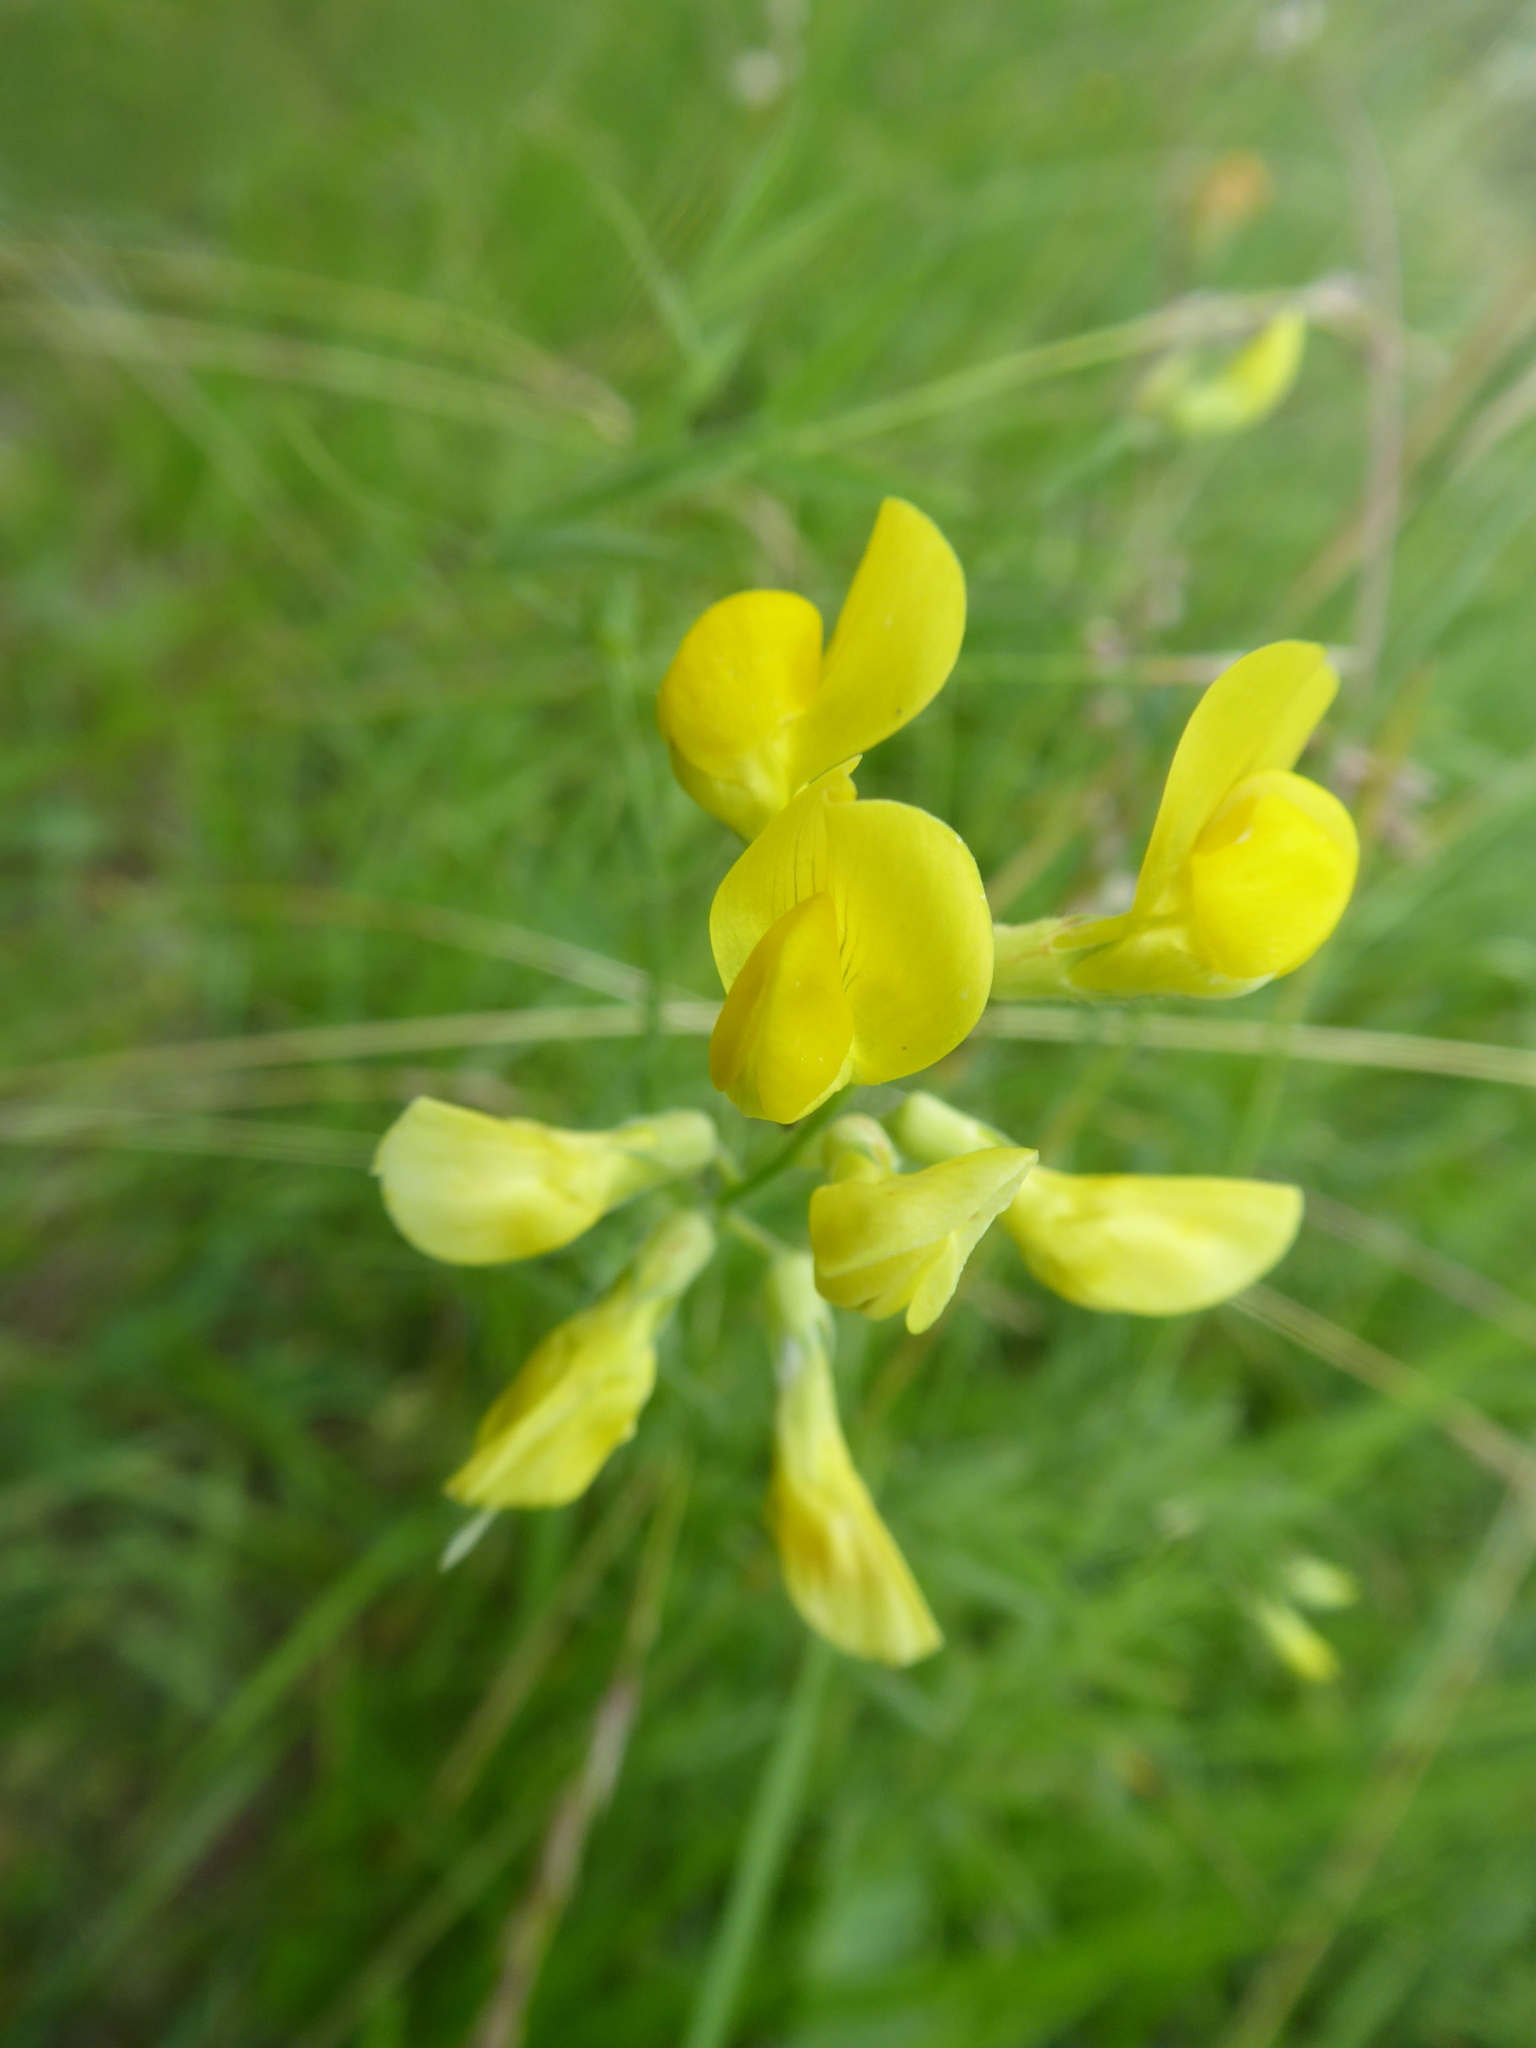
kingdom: Plantae
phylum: Tracheophyta
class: Magnoliopsida
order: Fabales
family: Fabaceae
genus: Lathyrus
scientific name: Lathyrus pratensis
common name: Meadow vetchling
